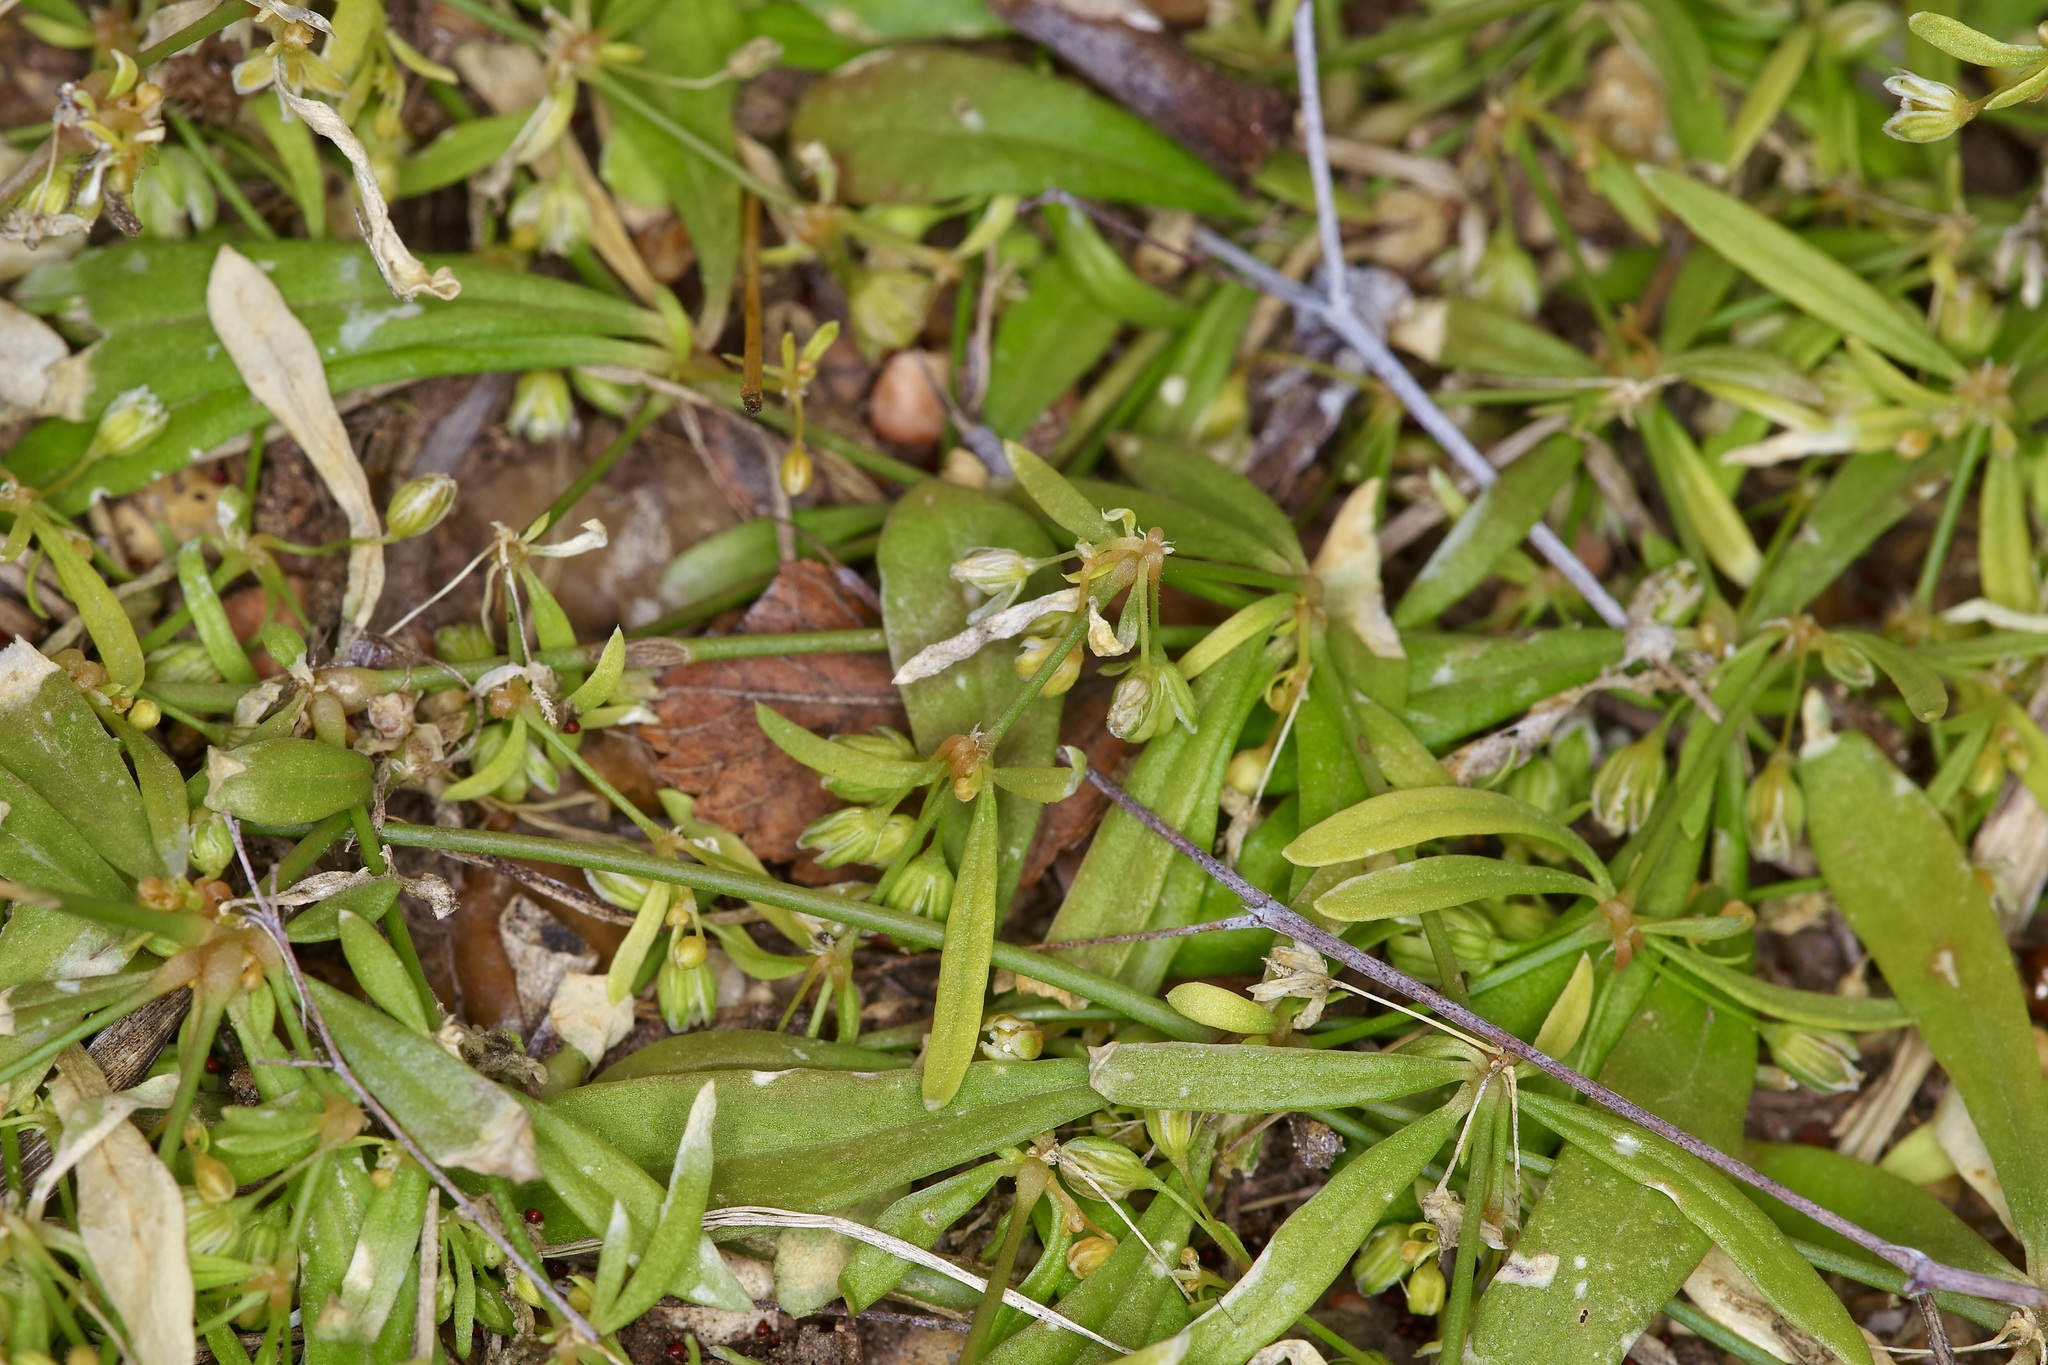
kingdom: Plantae
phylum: Tracheophyta
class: Magnoliopsida
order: Caryophyllales
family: Molluginaceae
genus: Mollugo
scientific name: Mollugo verticillata
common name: Green carpetweed
